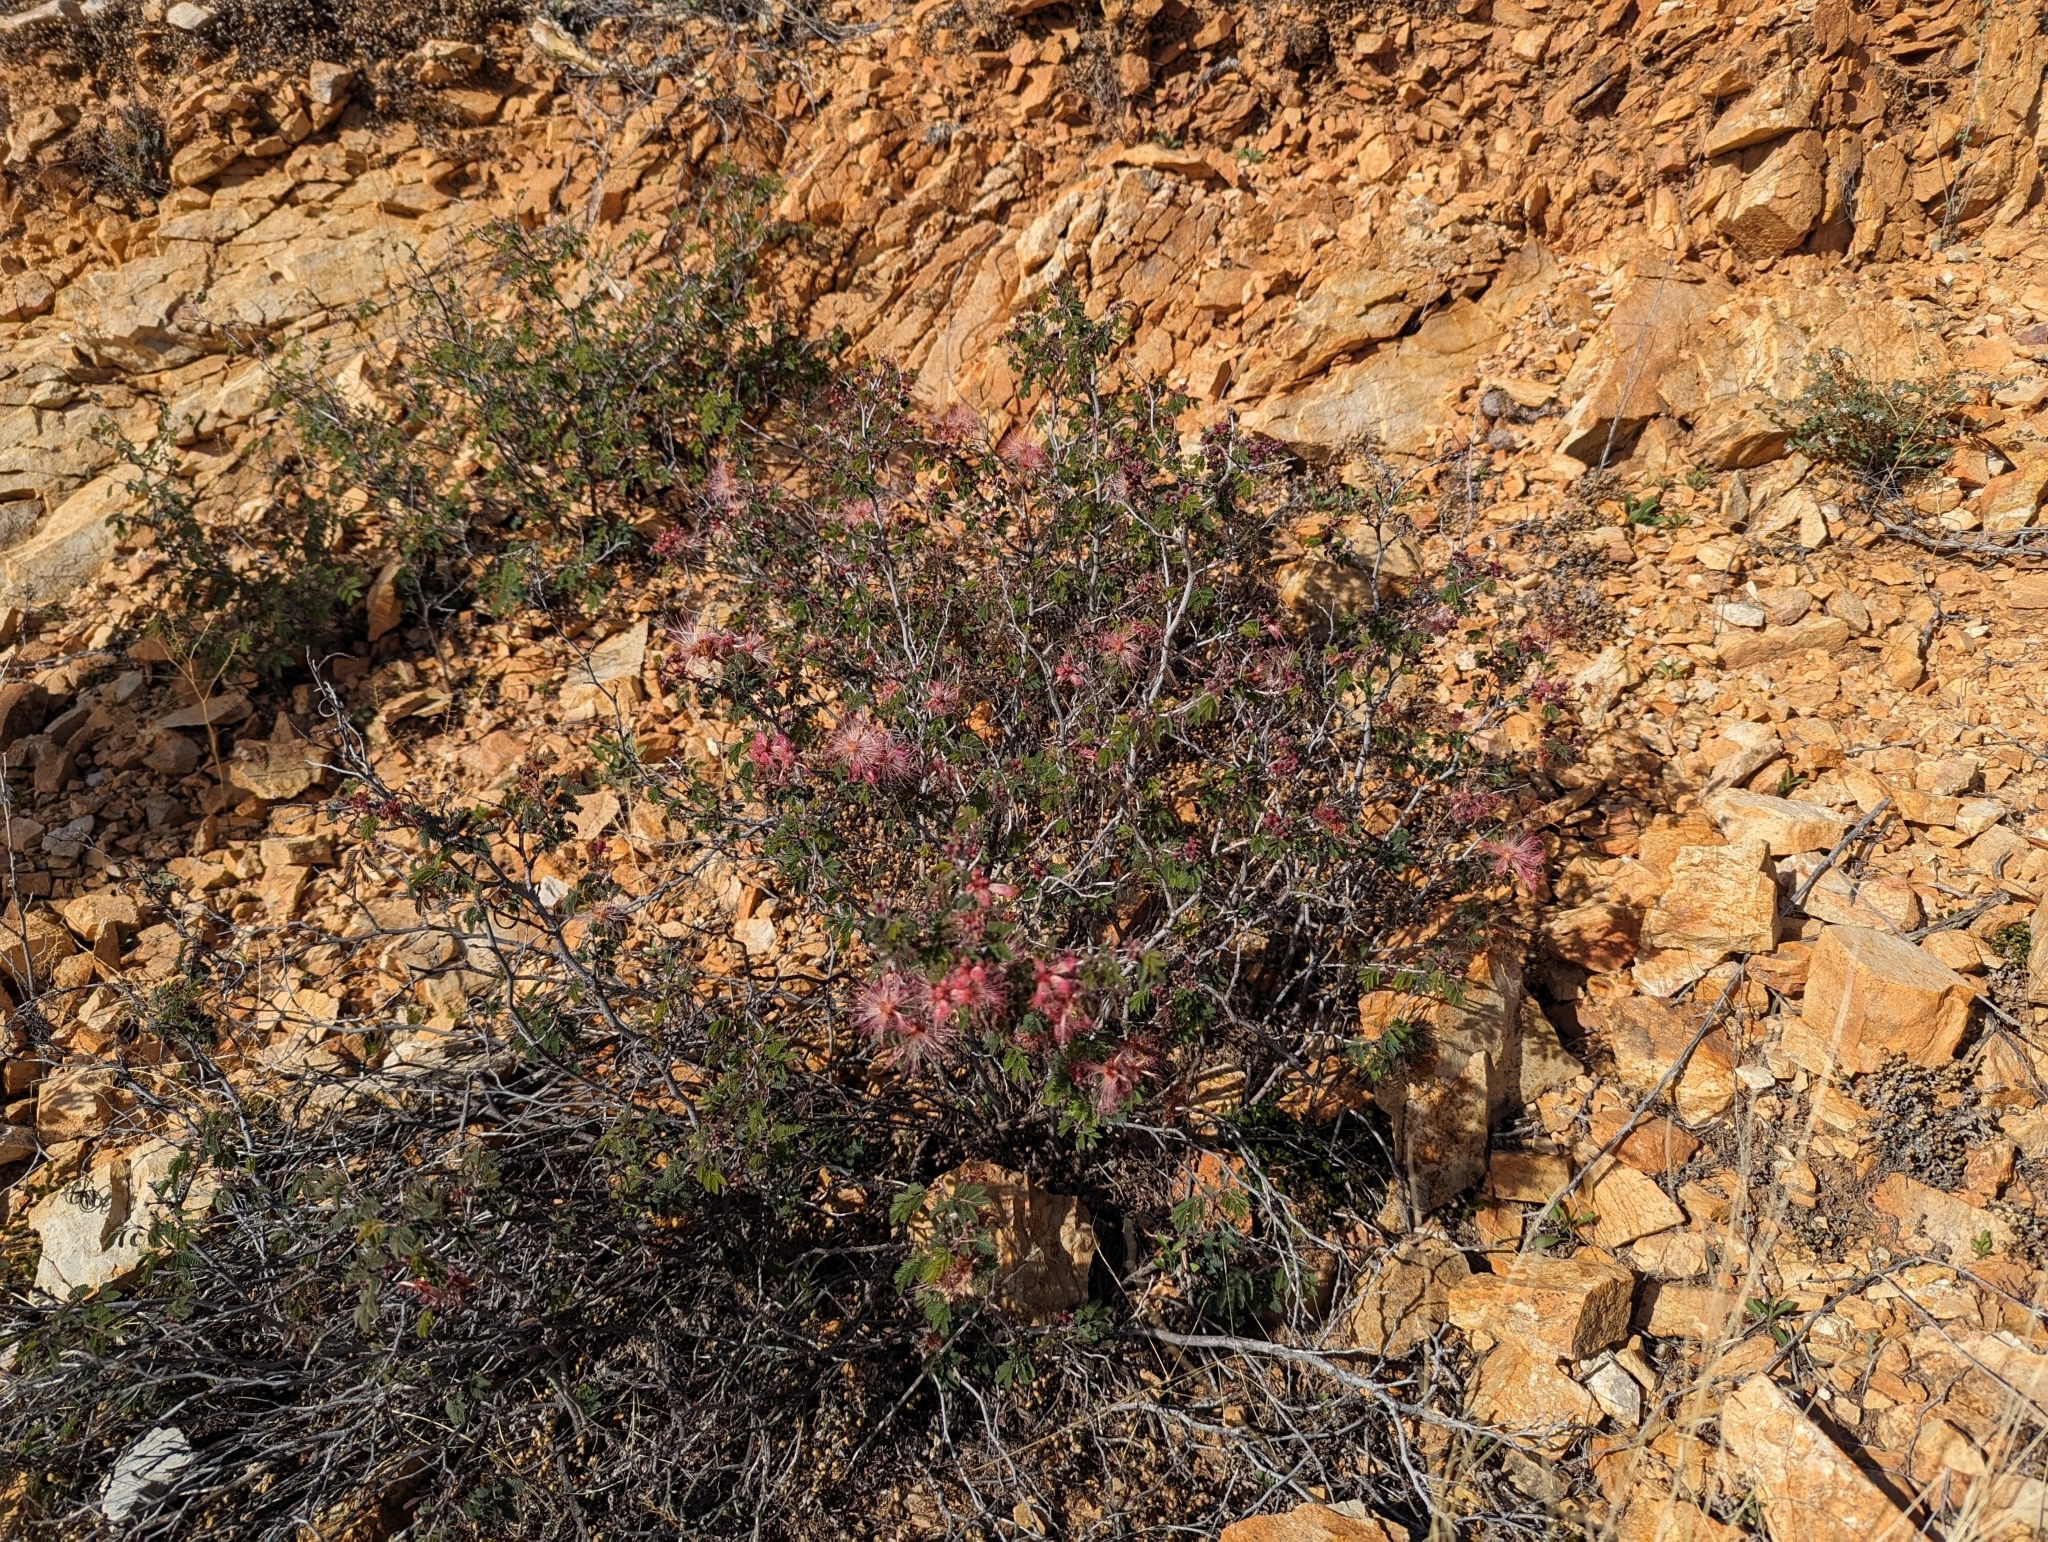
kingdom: Plantae
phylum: Tracheophyta
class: Magnoliopsida
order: Fabales
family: Fabaceae
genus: Calliandra
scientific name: Calliandra eriophylla
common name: Fairy-duster
